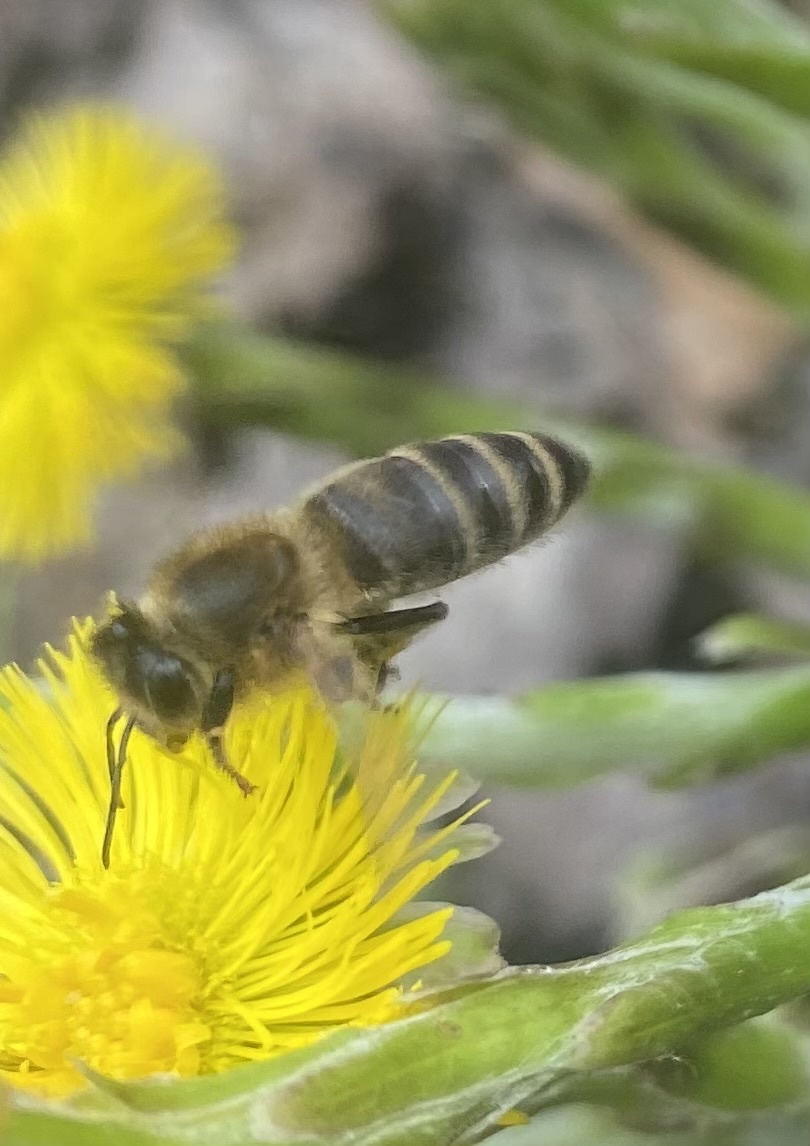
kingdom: Animalia
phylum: Arthropoda
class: Insecta
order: Hymenoptera
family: Apidae
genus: Apis
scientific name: Apis mellifera
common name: Honey bee
